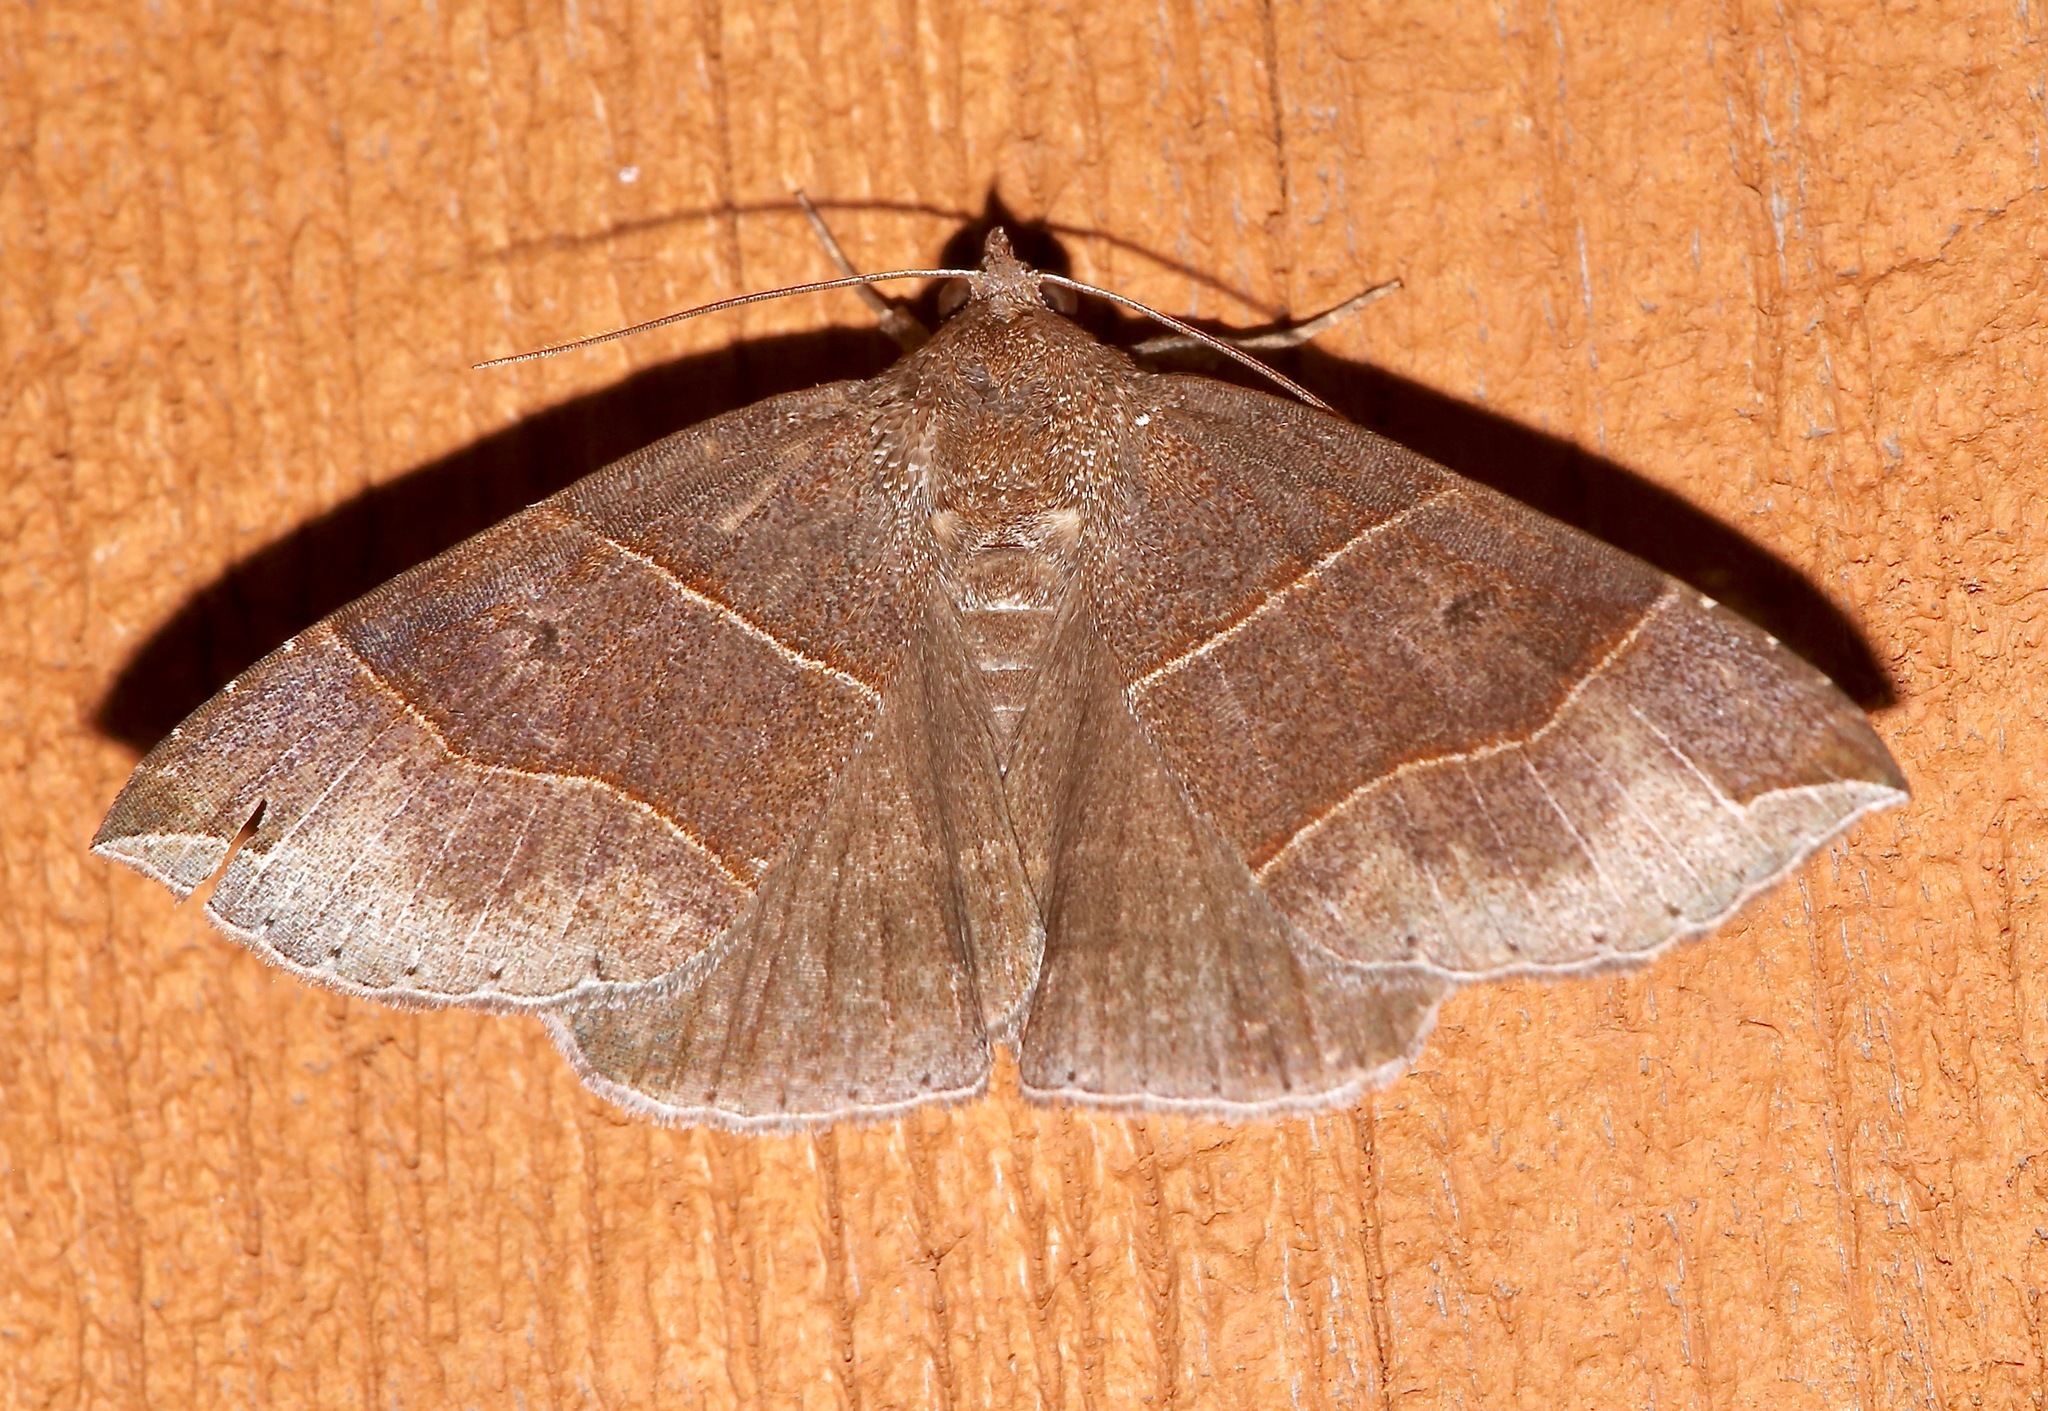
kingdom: Animalia
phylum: Arthropoda
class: Insecta
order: Lepidoptera
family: Erebidae
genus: Parallelia
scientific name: Parallelia bistriaris
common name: Maple looper moth
